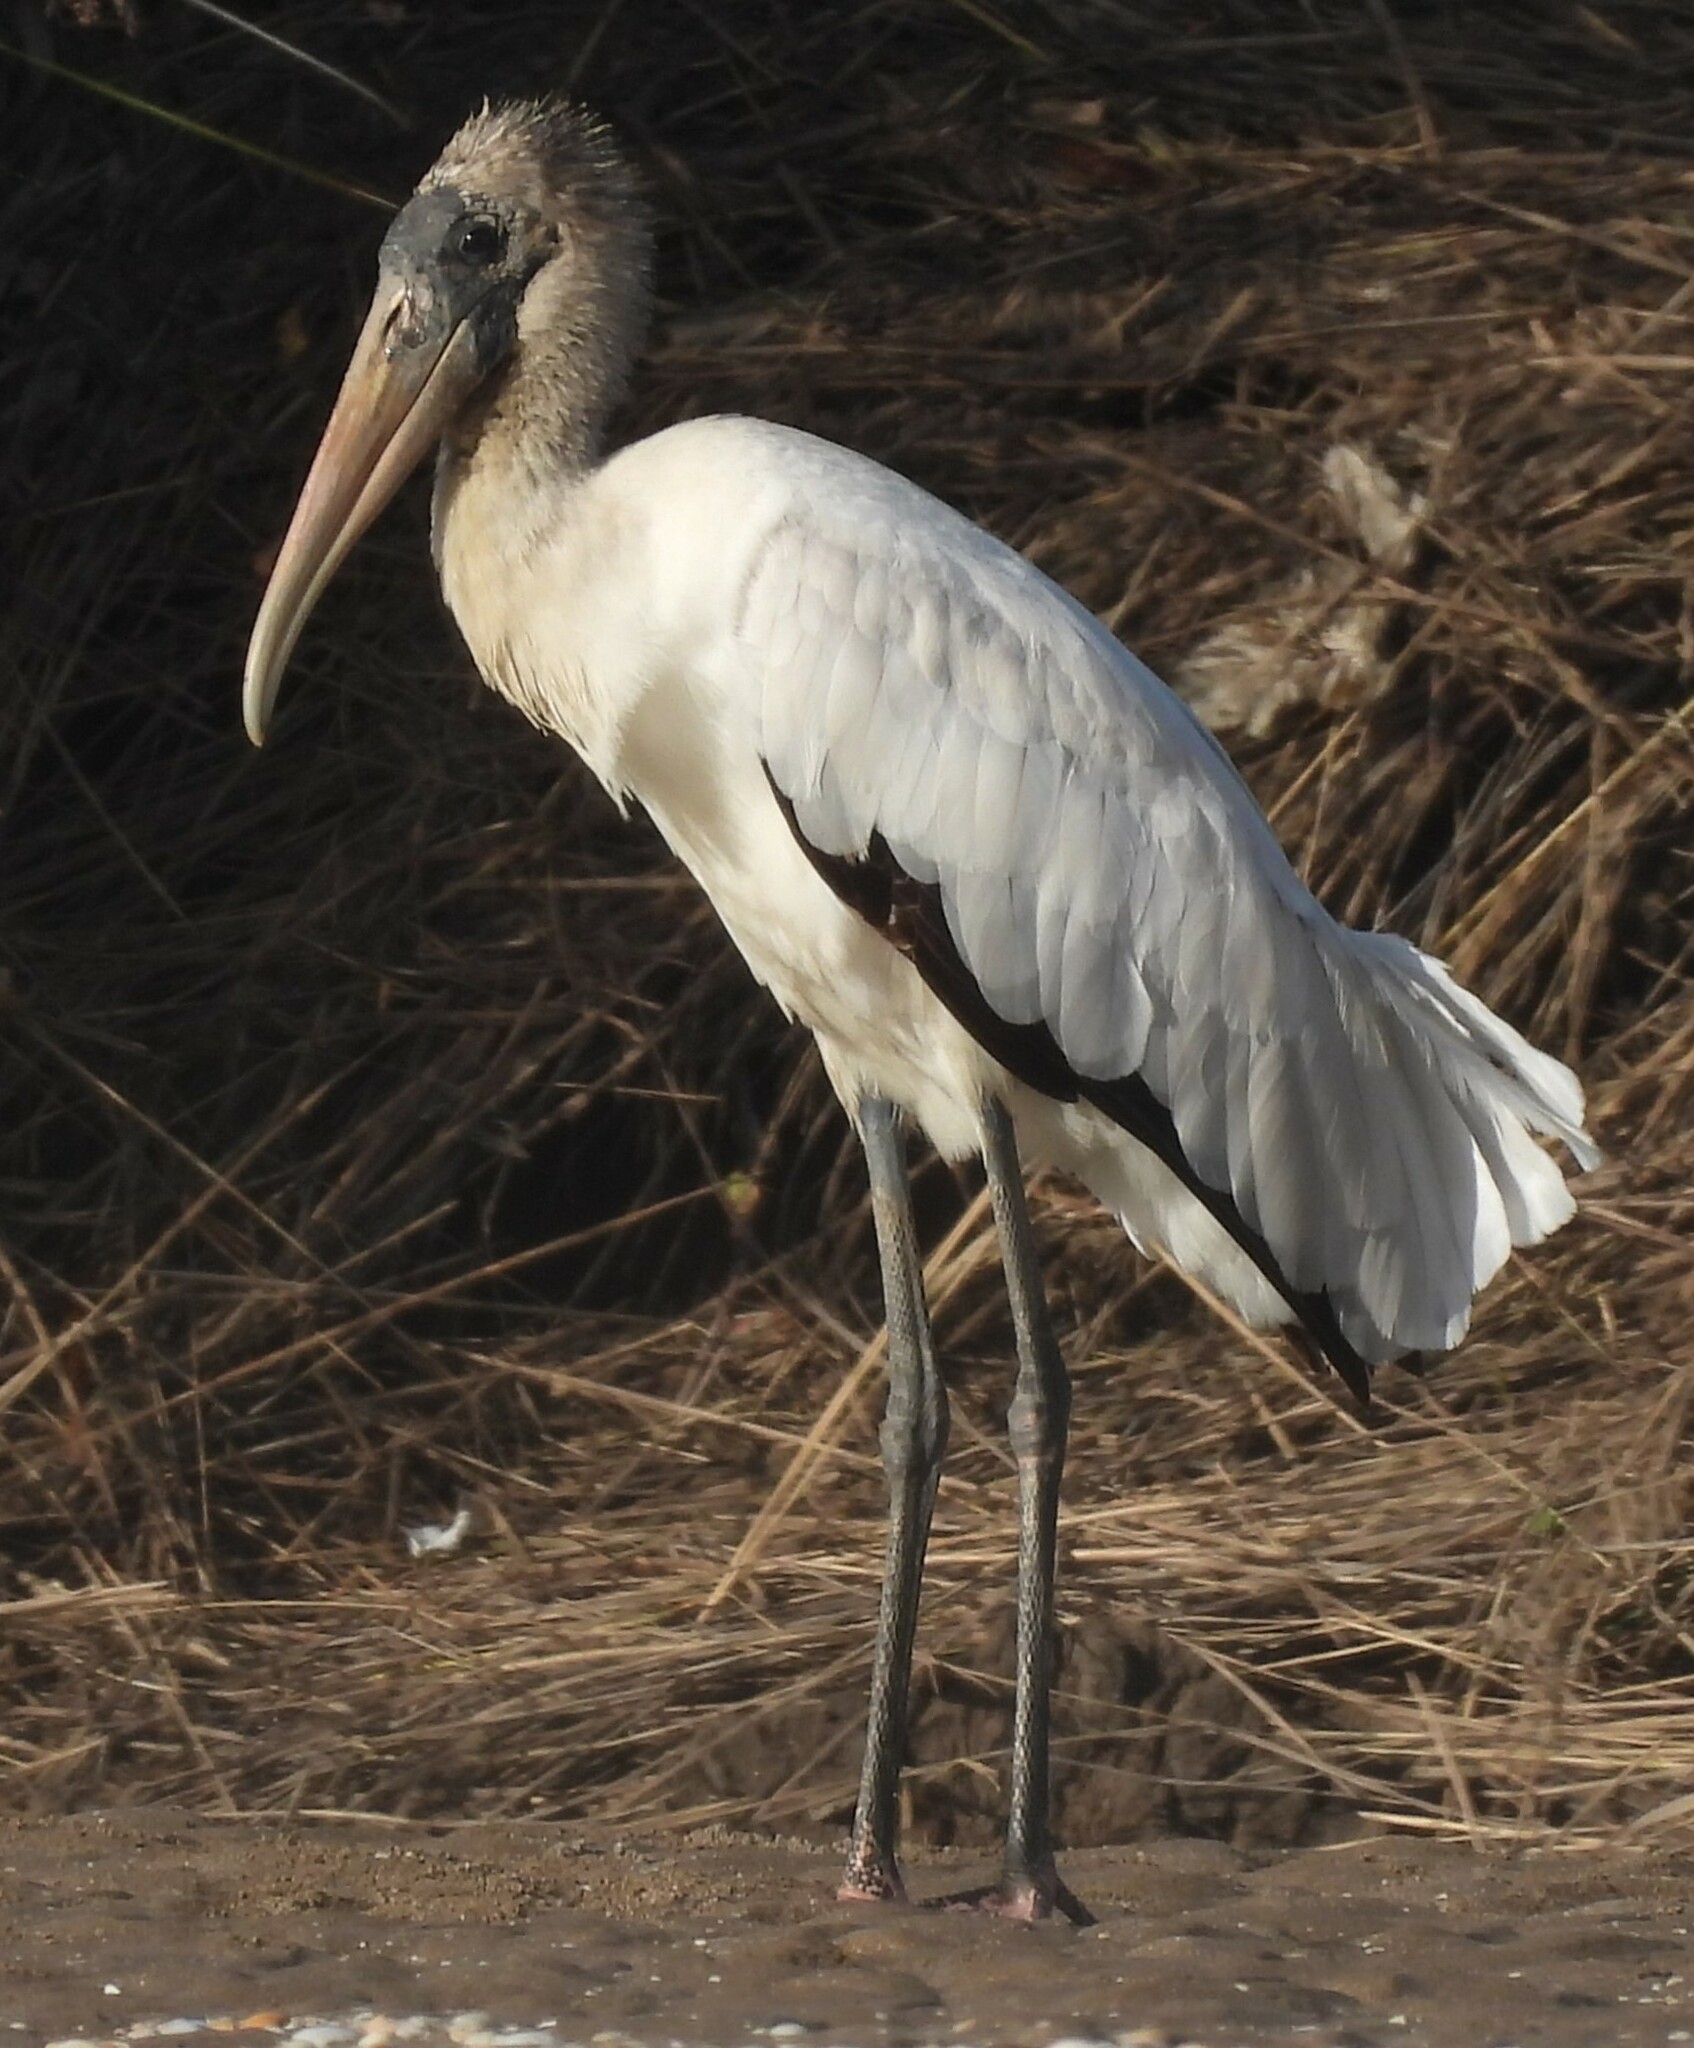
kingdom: Animalia
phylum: Chordata
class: Aves
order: Ciconiiformes
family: Ciconiidae
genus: Mycteria
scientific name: Mycteria americana
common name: Wood stork
